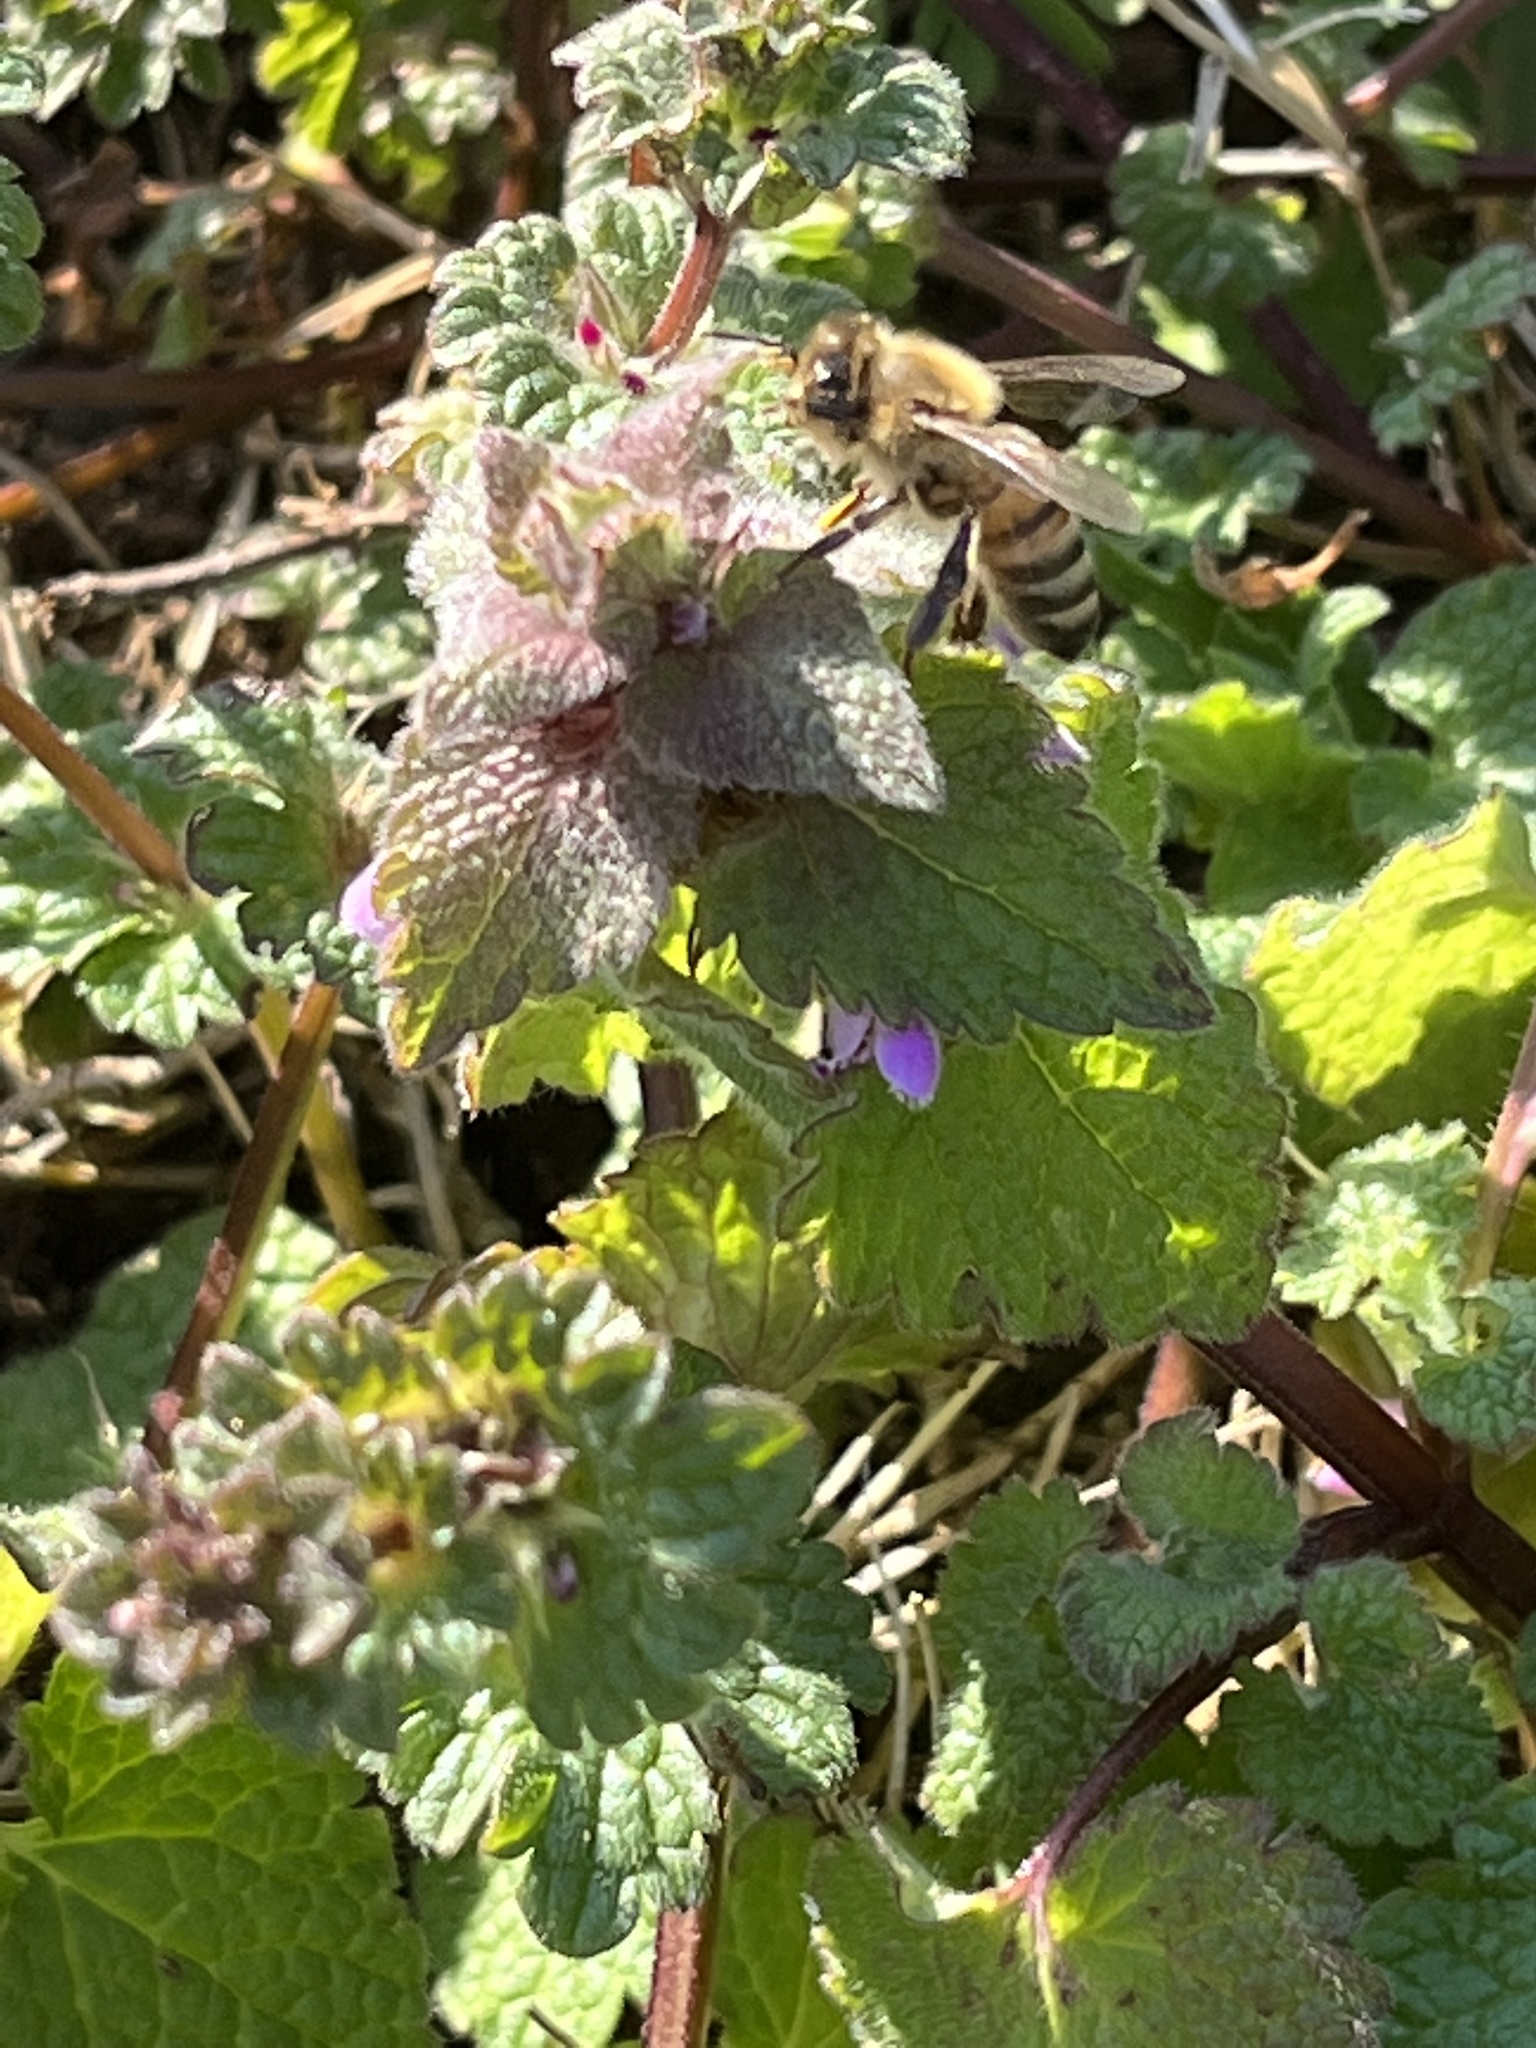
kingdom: Animalia
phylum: Arthropoda
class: Insecta
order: Hymenoptera
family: Apidae
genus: Apis
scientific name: Apis mellifera
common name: Honey bee
